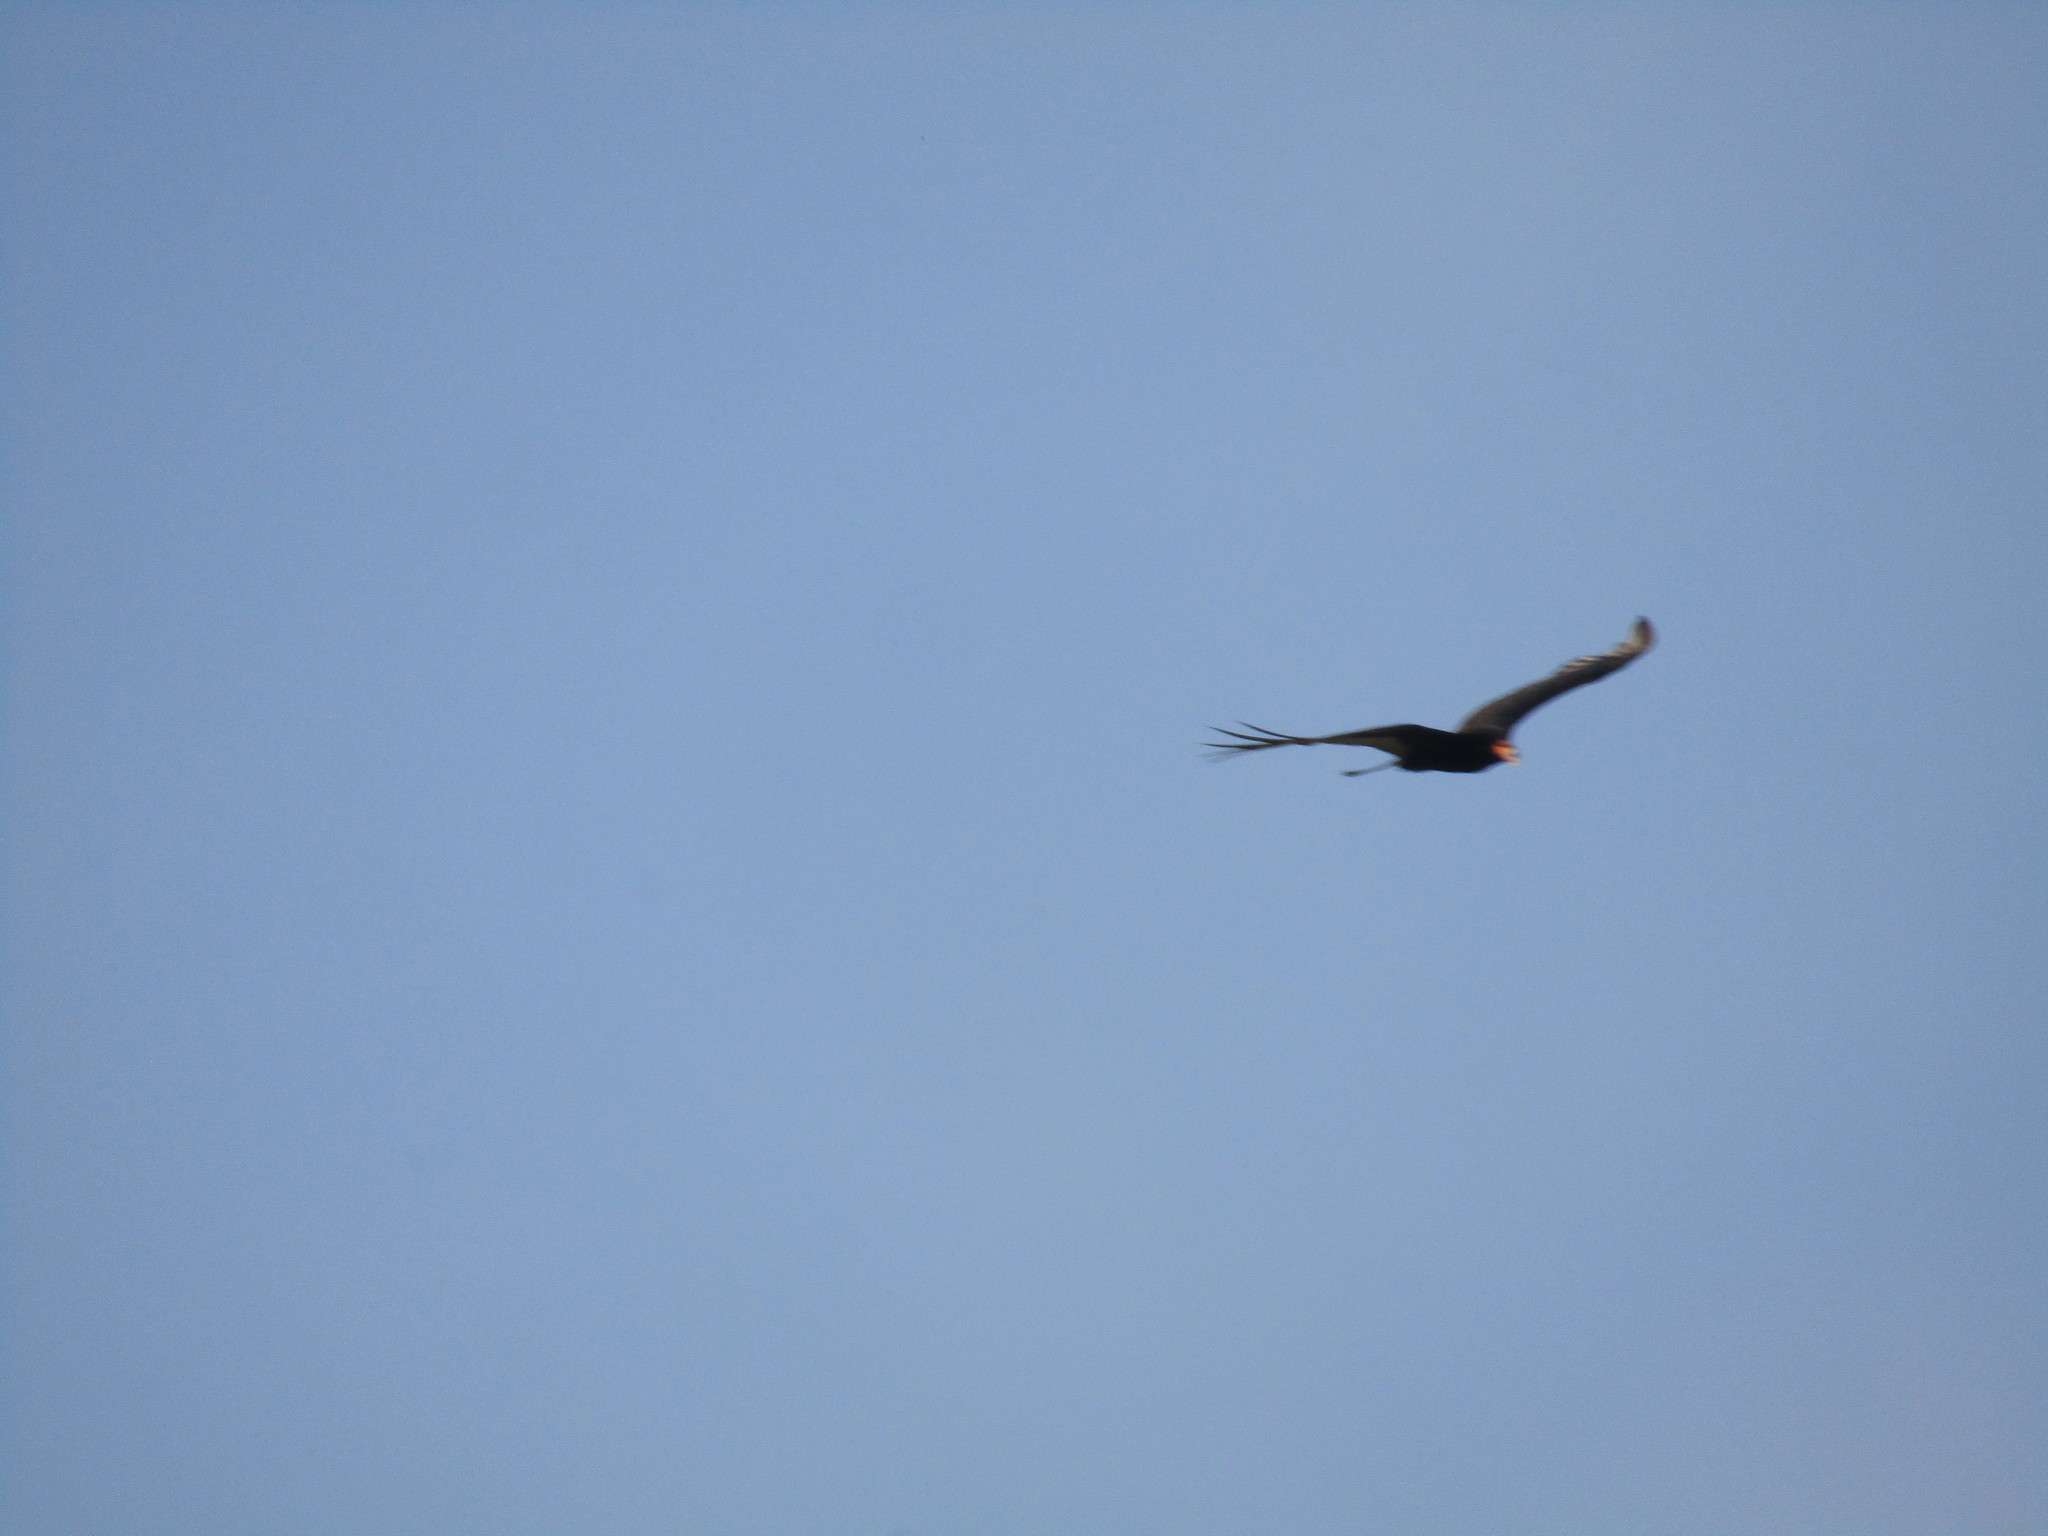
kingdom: Animalia
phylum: Chordata
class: Aves
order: Accipitriformes
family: Cathartidae
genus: Cathartes
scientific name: Cathartes burrovianus
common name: Lesser yellow-headed vulture
